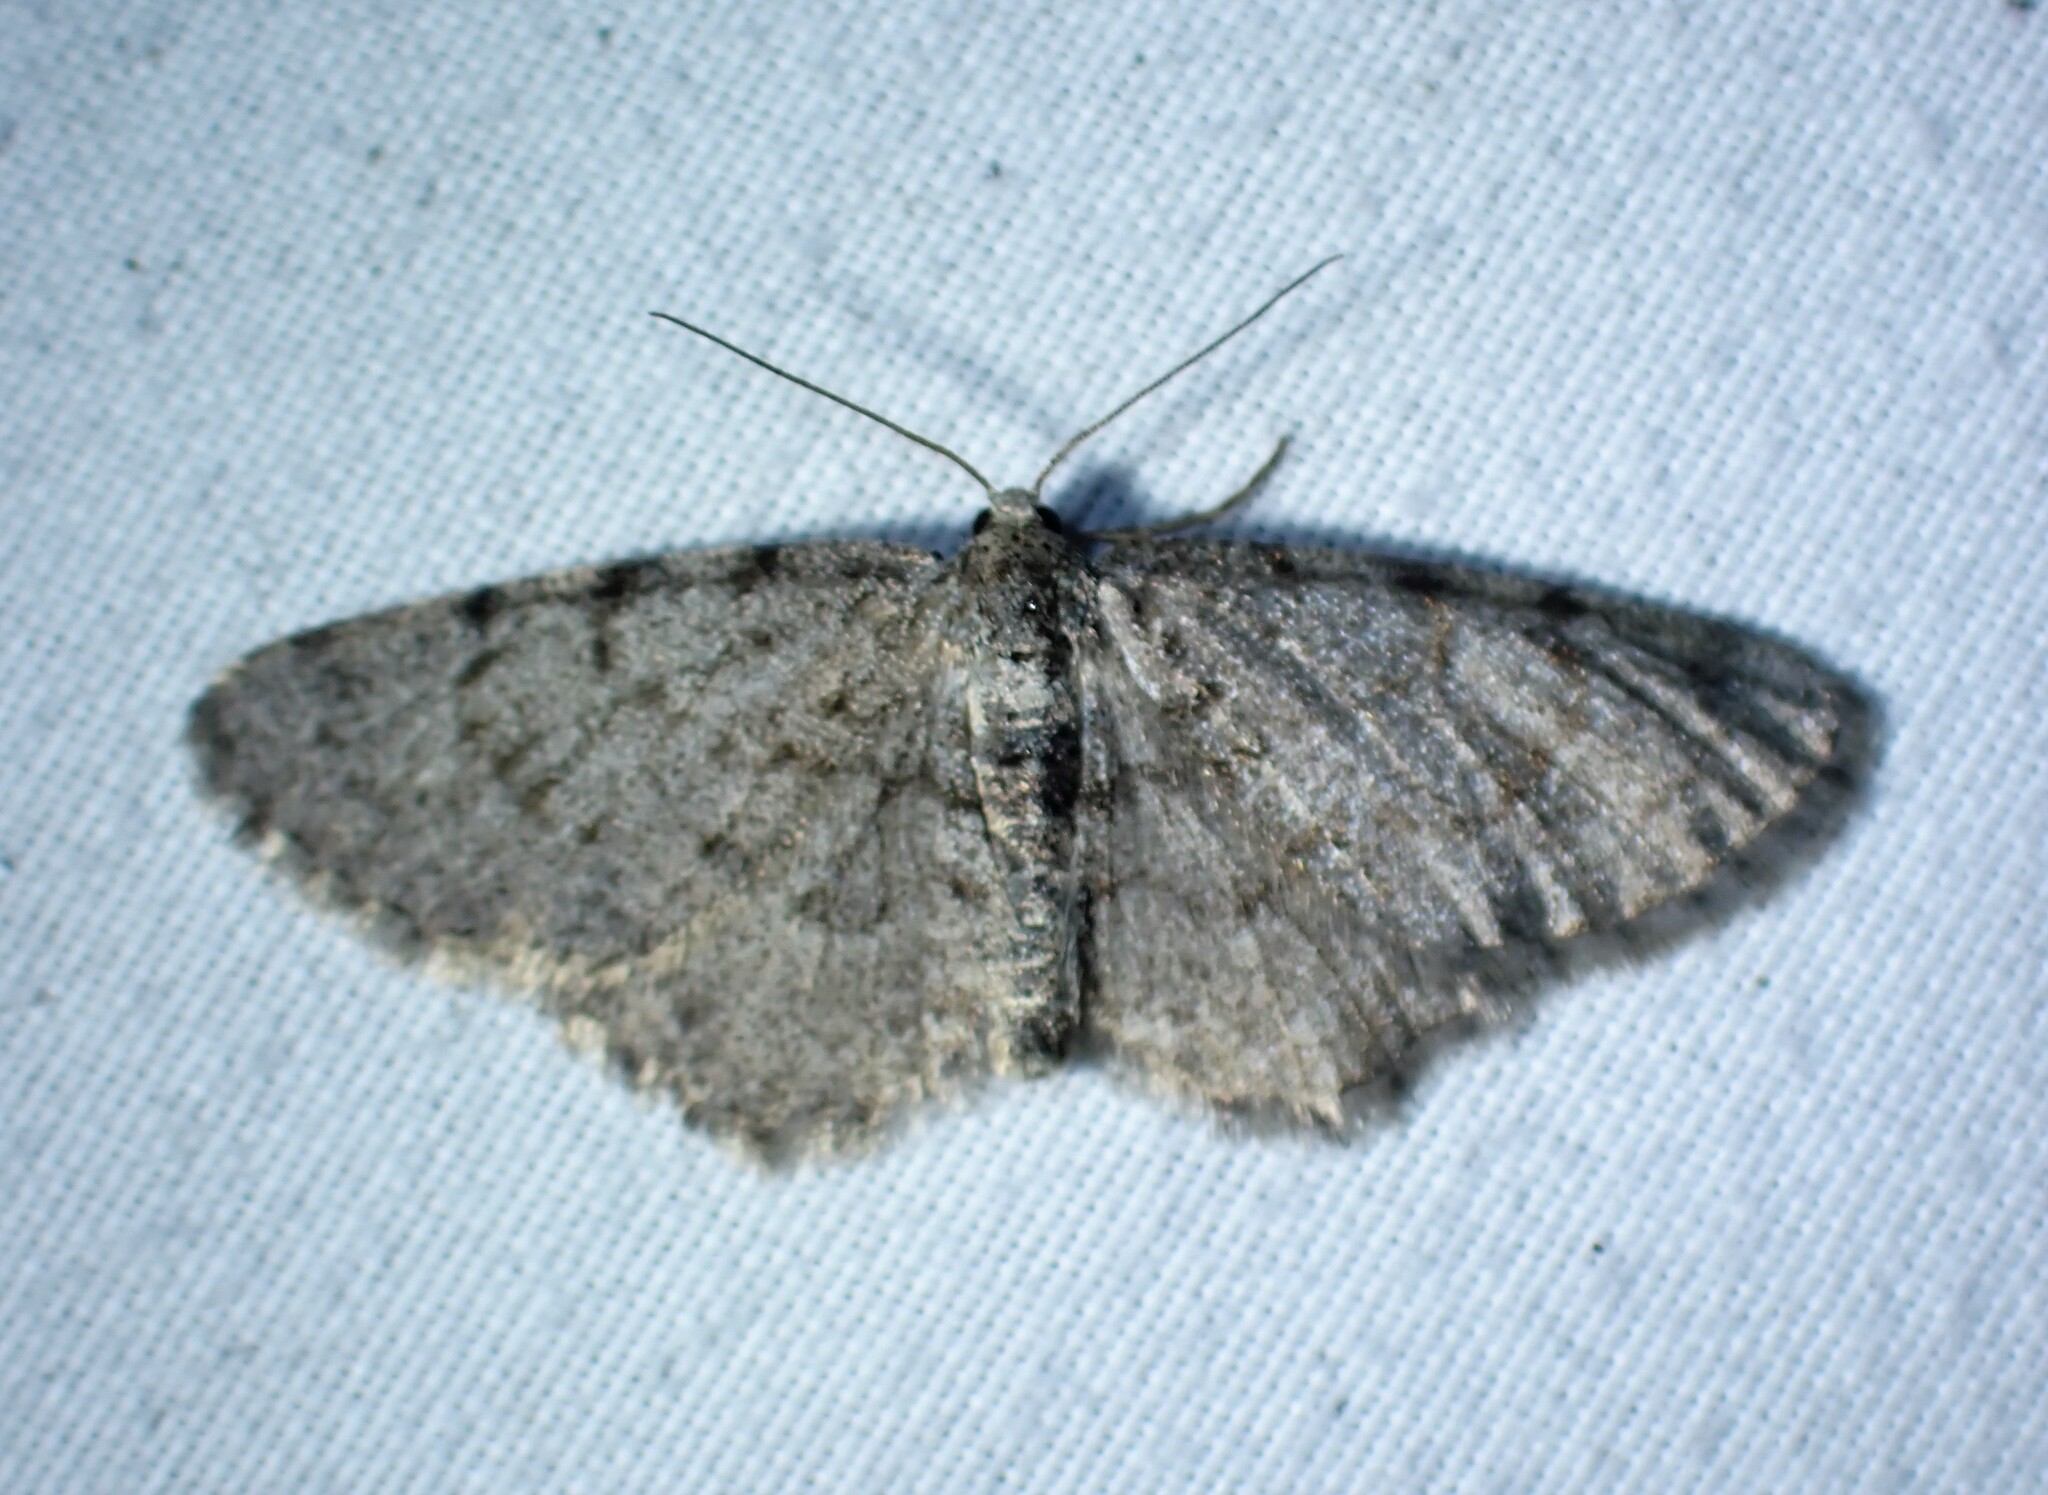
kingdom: Animalia
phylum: Arthropoda
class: Insecta
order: Lepidoptera
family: Geometridae
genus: Aethalura
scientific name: Aethalura intertexta
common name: Four-barred gray
